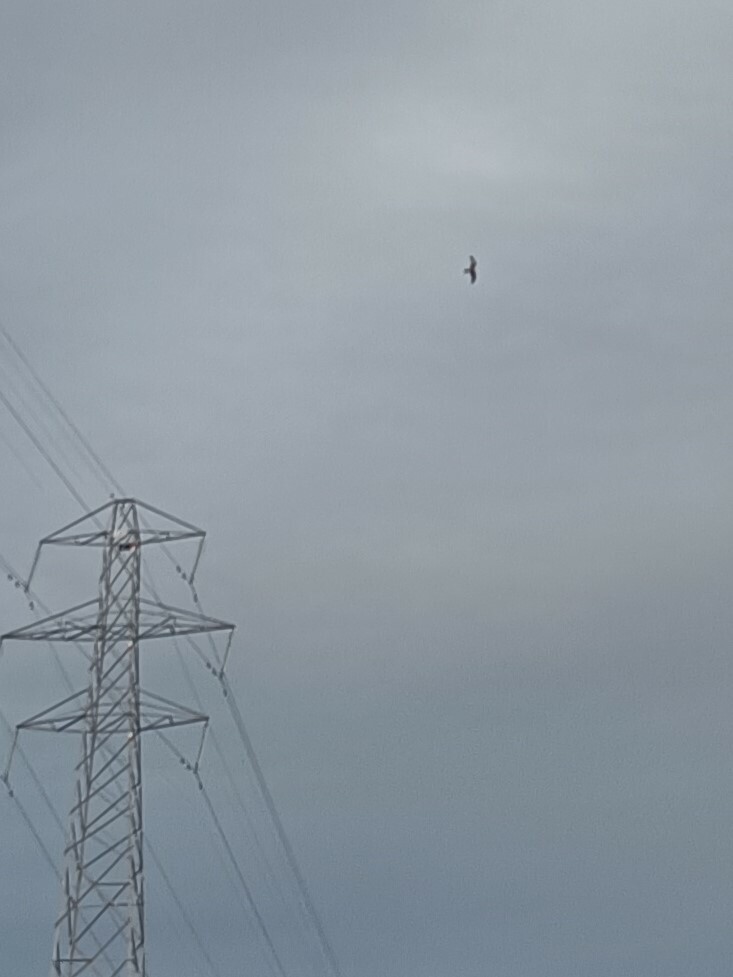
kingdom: Animalia
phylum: Chordata
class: Aves
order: Accipitriformes
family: Accipitridae
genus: Milvus
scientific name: Milvus milvus
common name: Red kite
